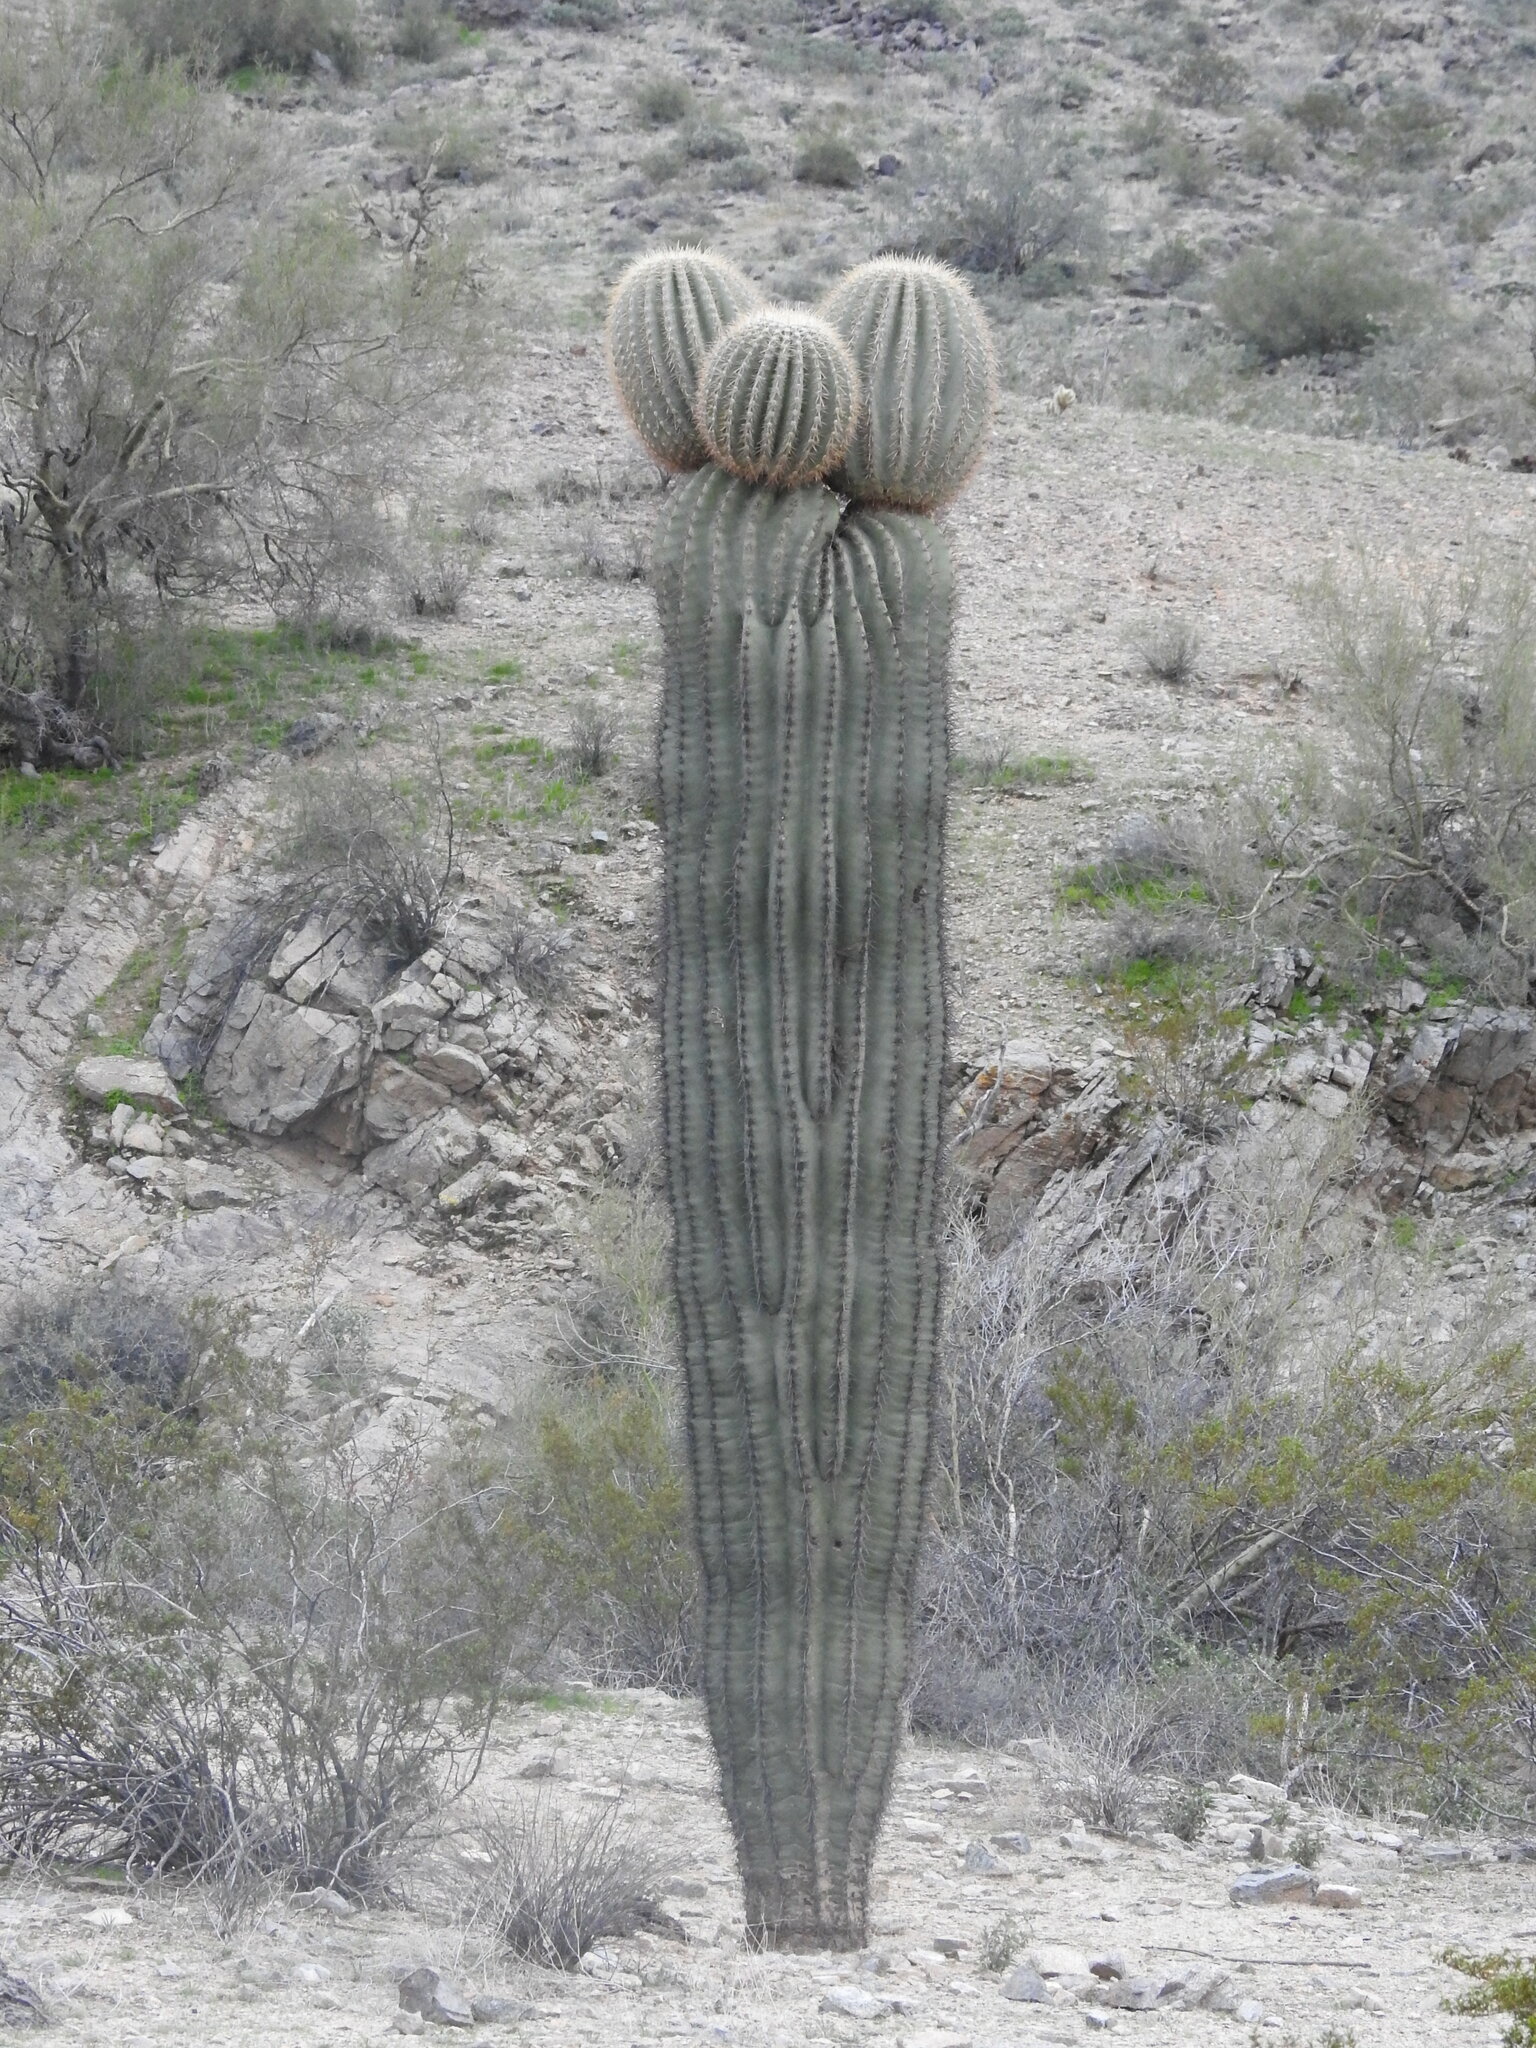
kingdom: Plantae
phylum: Tracheophyta
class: Magnoliopsida
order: Caryophyllales
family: Cactaceae
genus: Carnegiea
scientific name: Carnegiea gigantea
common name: Saguaro
